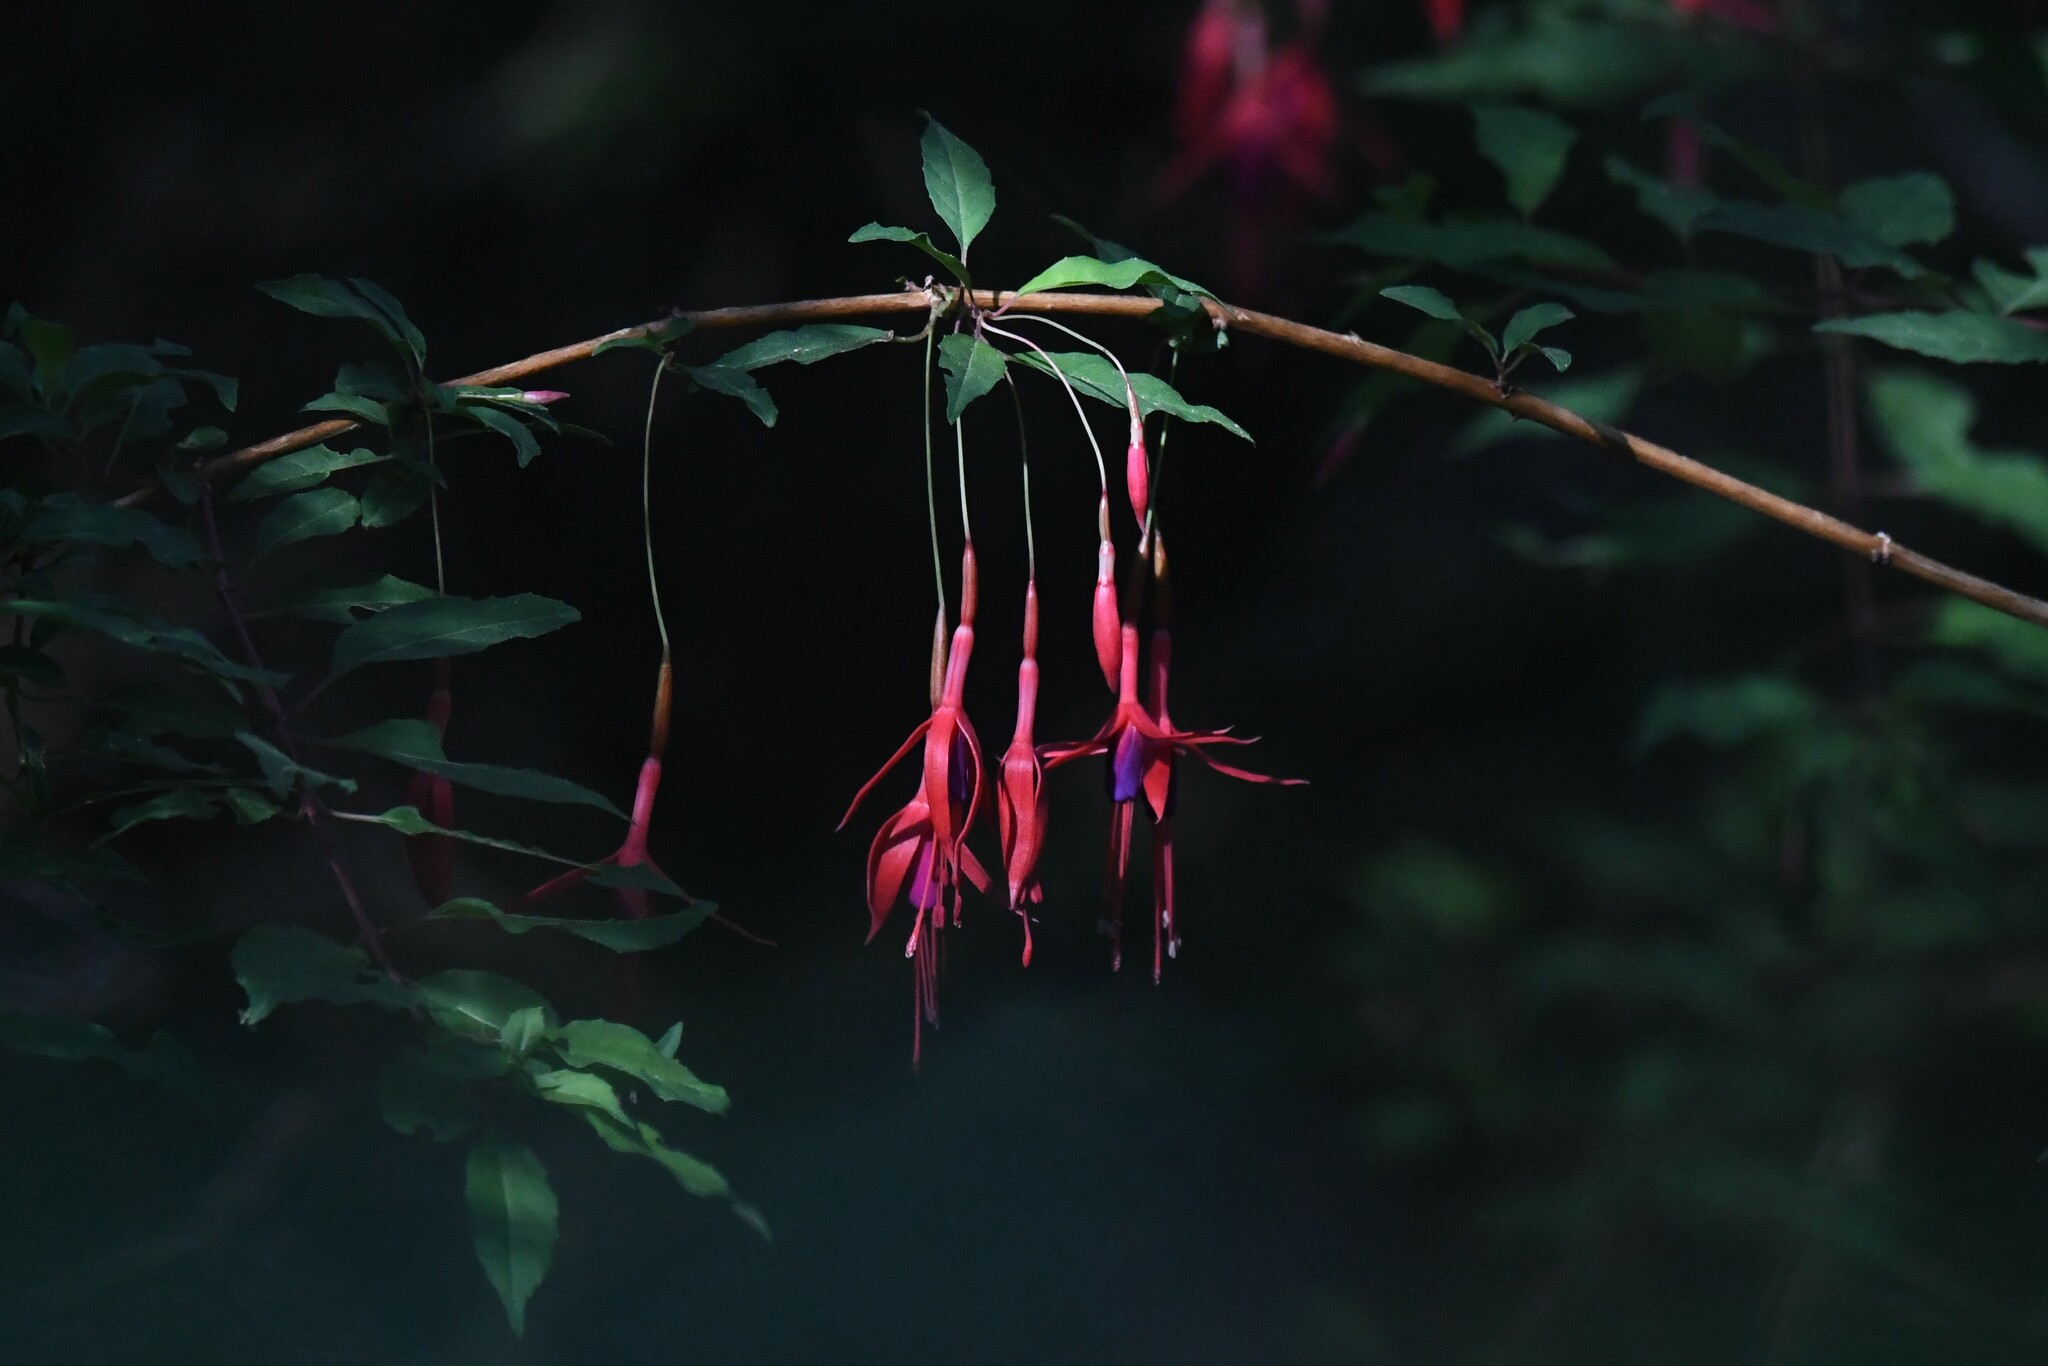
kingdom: Plantae
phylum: Tracheophyta
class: Magnoliopsida
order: Myrtales
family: Onagraceae
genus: Fuchsia
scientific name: Fuchsia magellanica
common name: Hardy fuchsia
